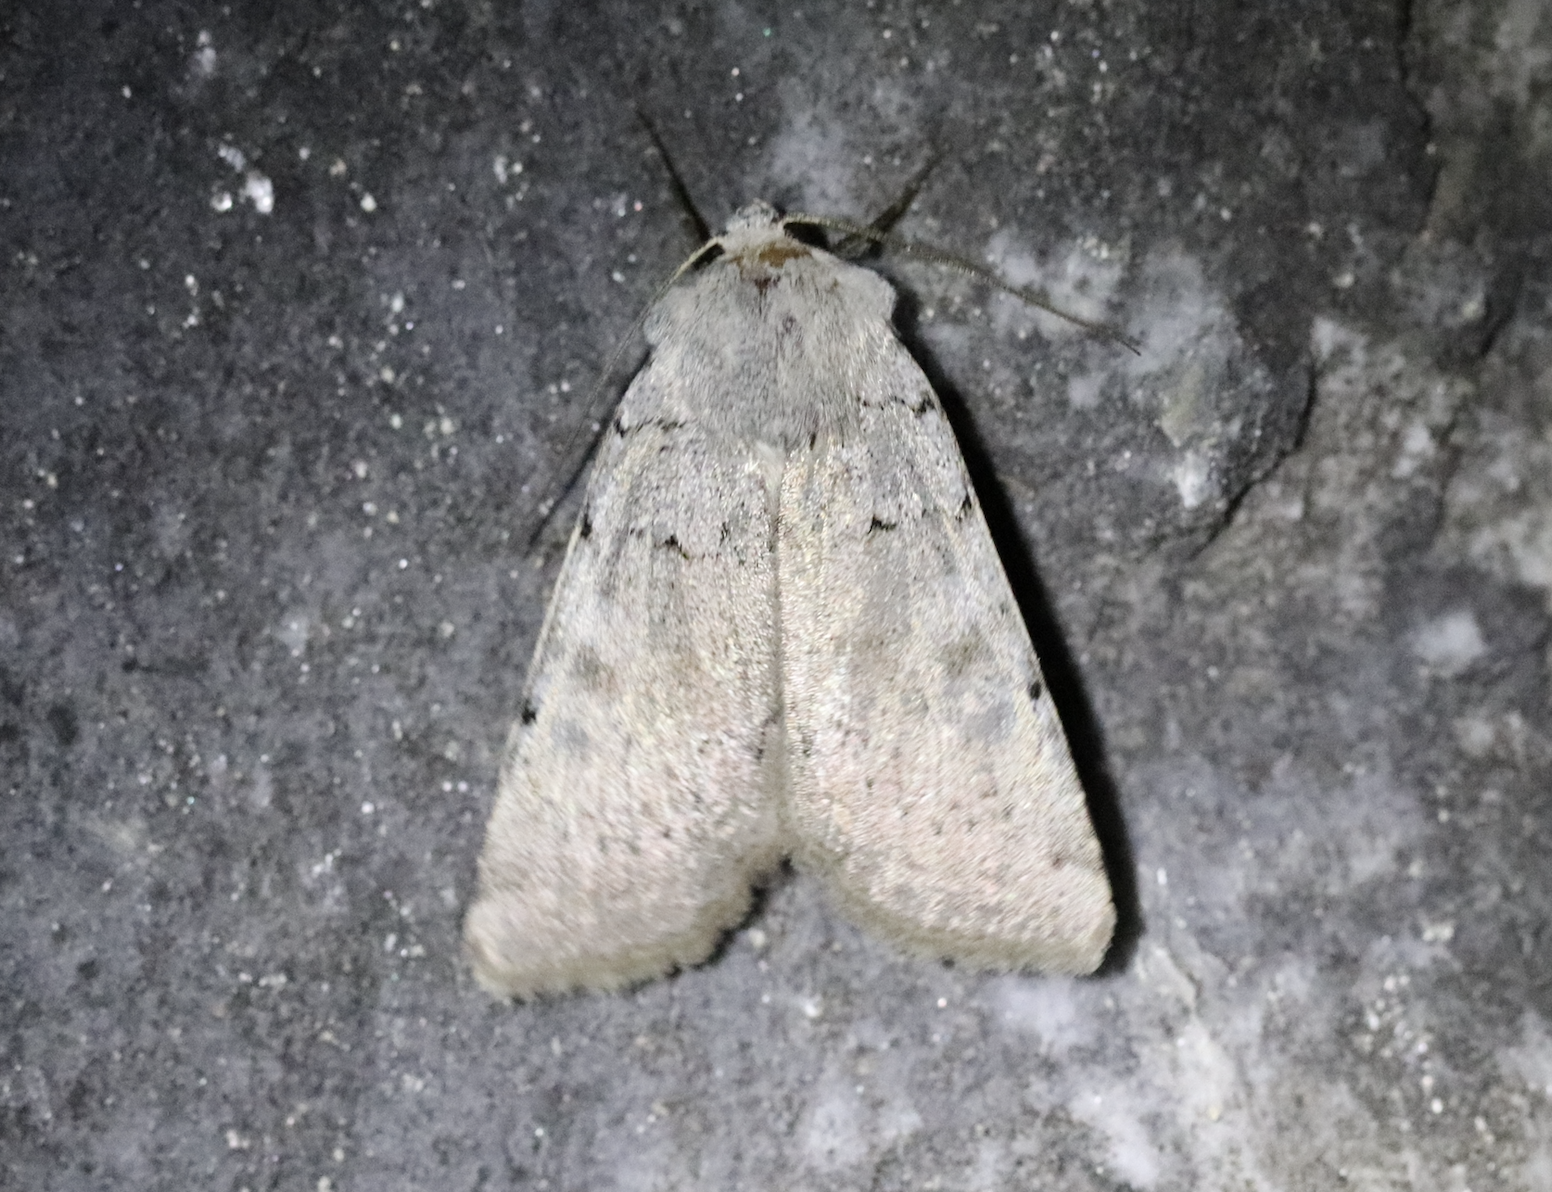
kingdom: Animalia
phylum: Arthropoda
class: Insecta
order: Lepidoptera
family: Noctuidae
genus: Xestia
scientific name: Xestia ashworthii
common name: Ashworth's rustic
